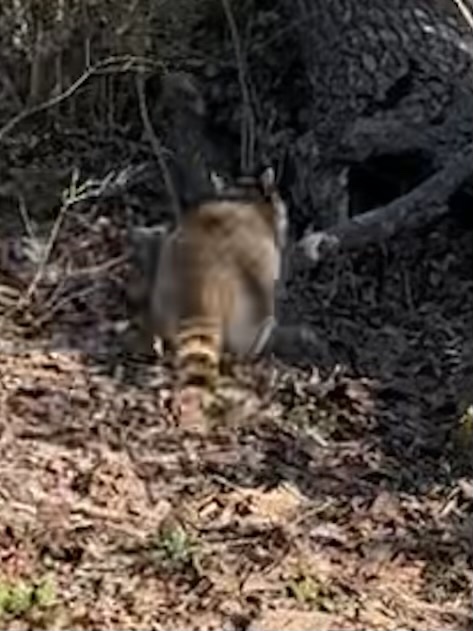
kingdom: Animalia
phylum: Chordata
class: Mammalia
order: Carnivora
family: Procyonidae
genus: Procyon
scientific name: Procyon lotor
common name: Raccoon
